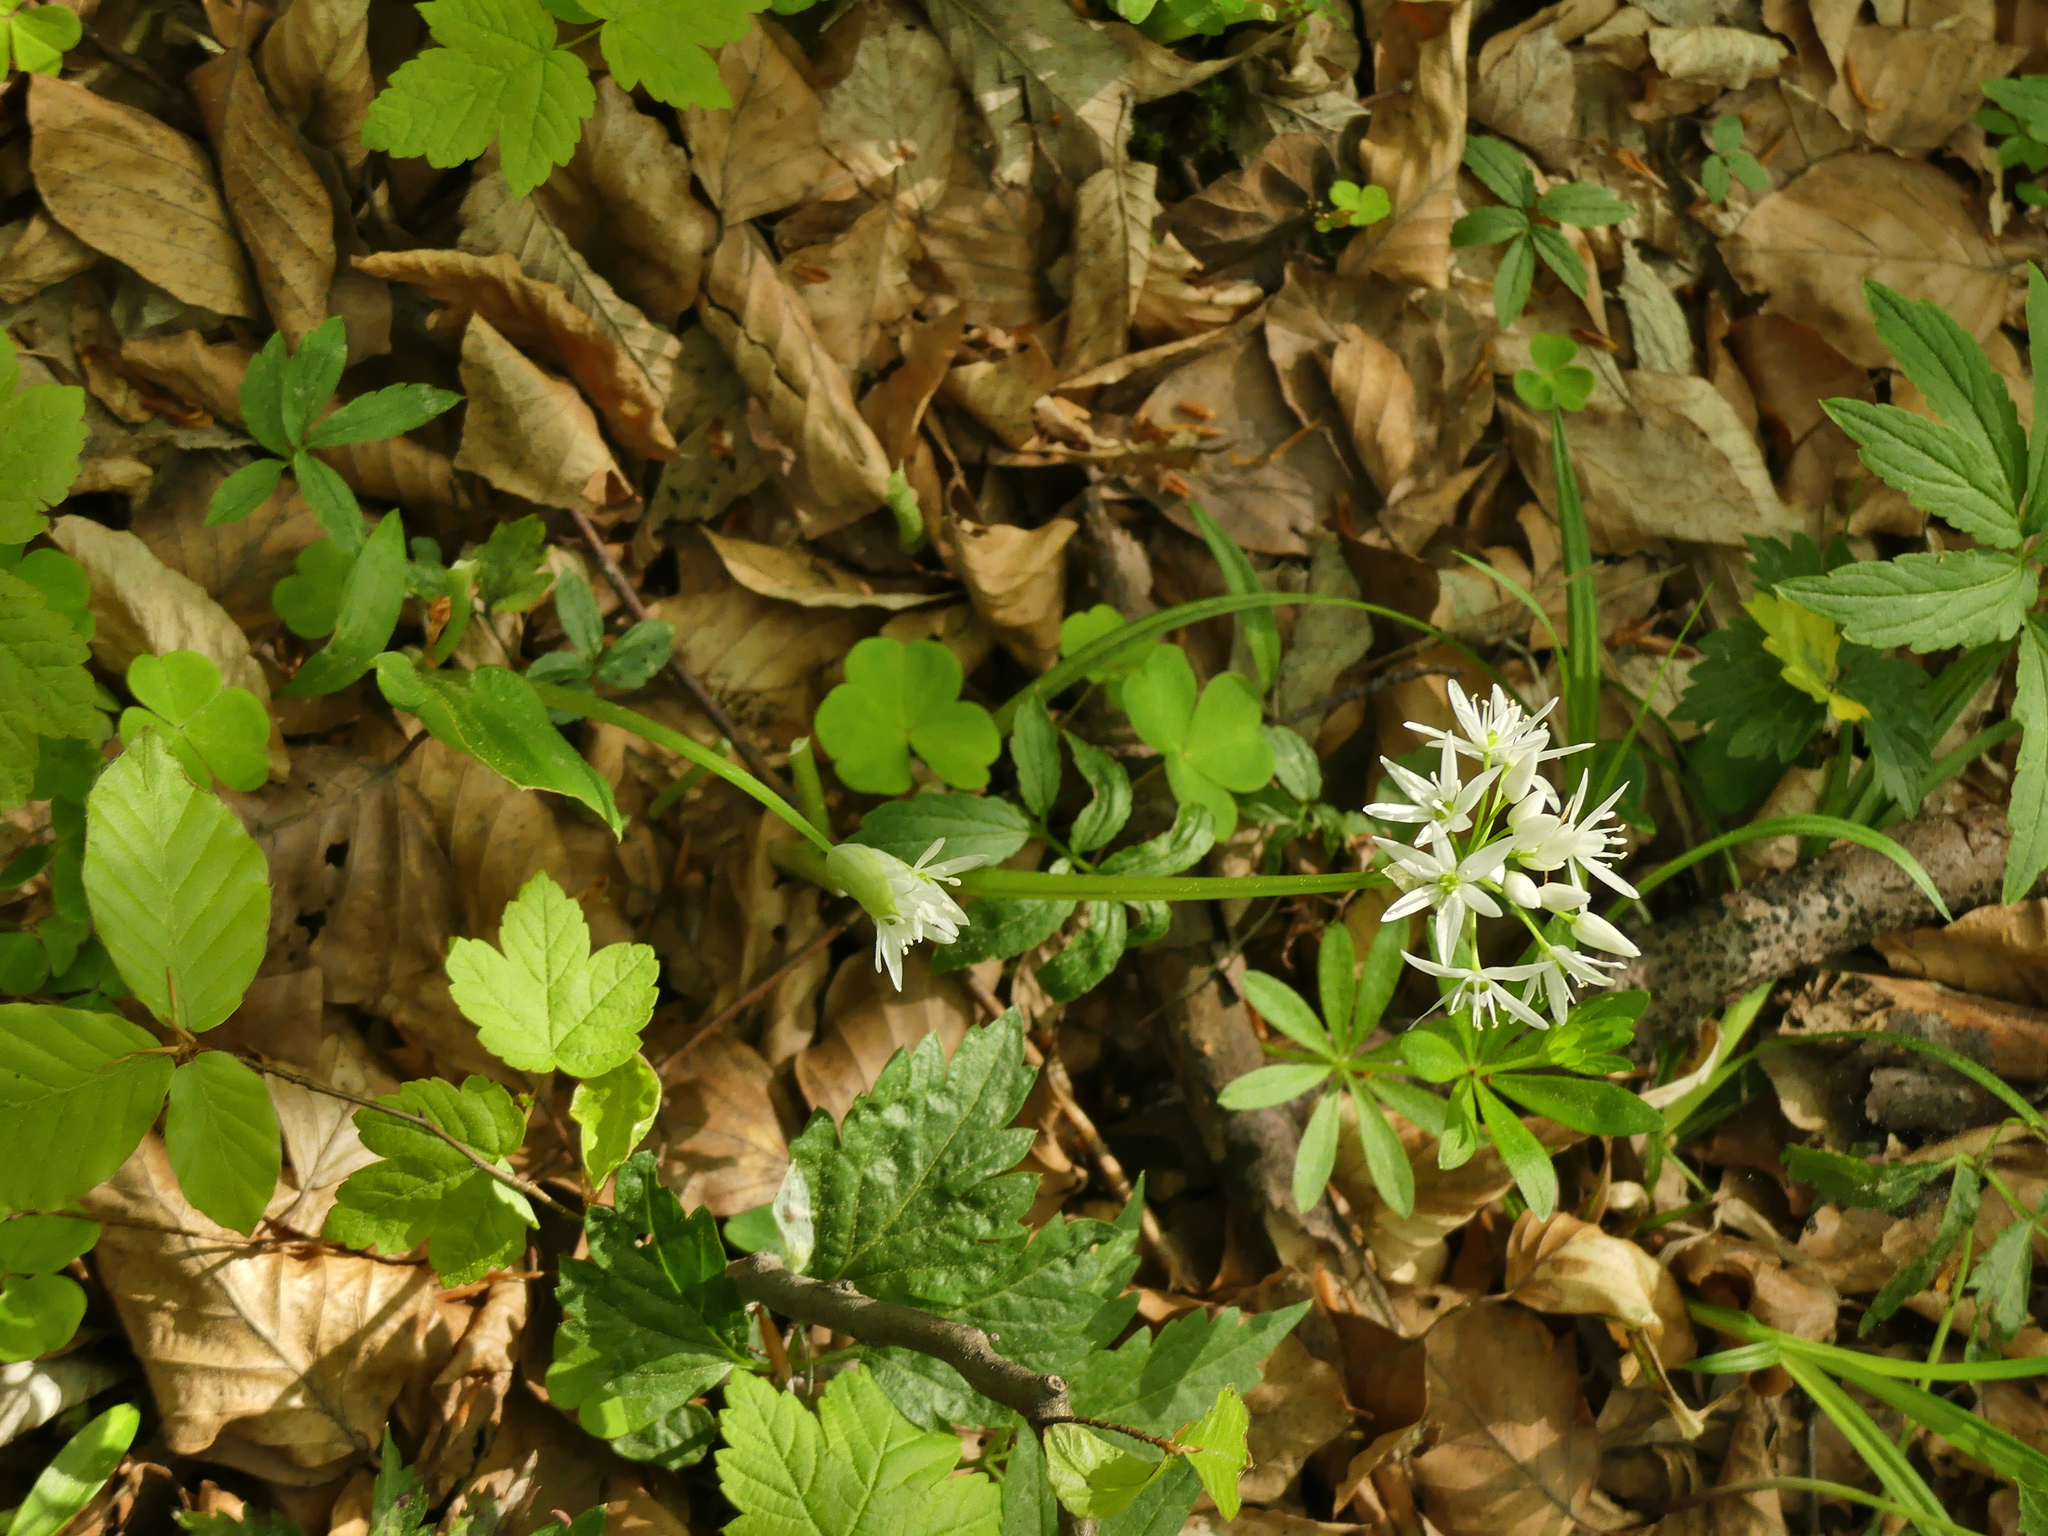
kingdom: Plantae
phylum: Tracheophyta
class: Liliopsida
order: Asparagales
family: Amaryllidaceae
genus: Allium
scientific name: Allium ursinum
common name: Ramsons
